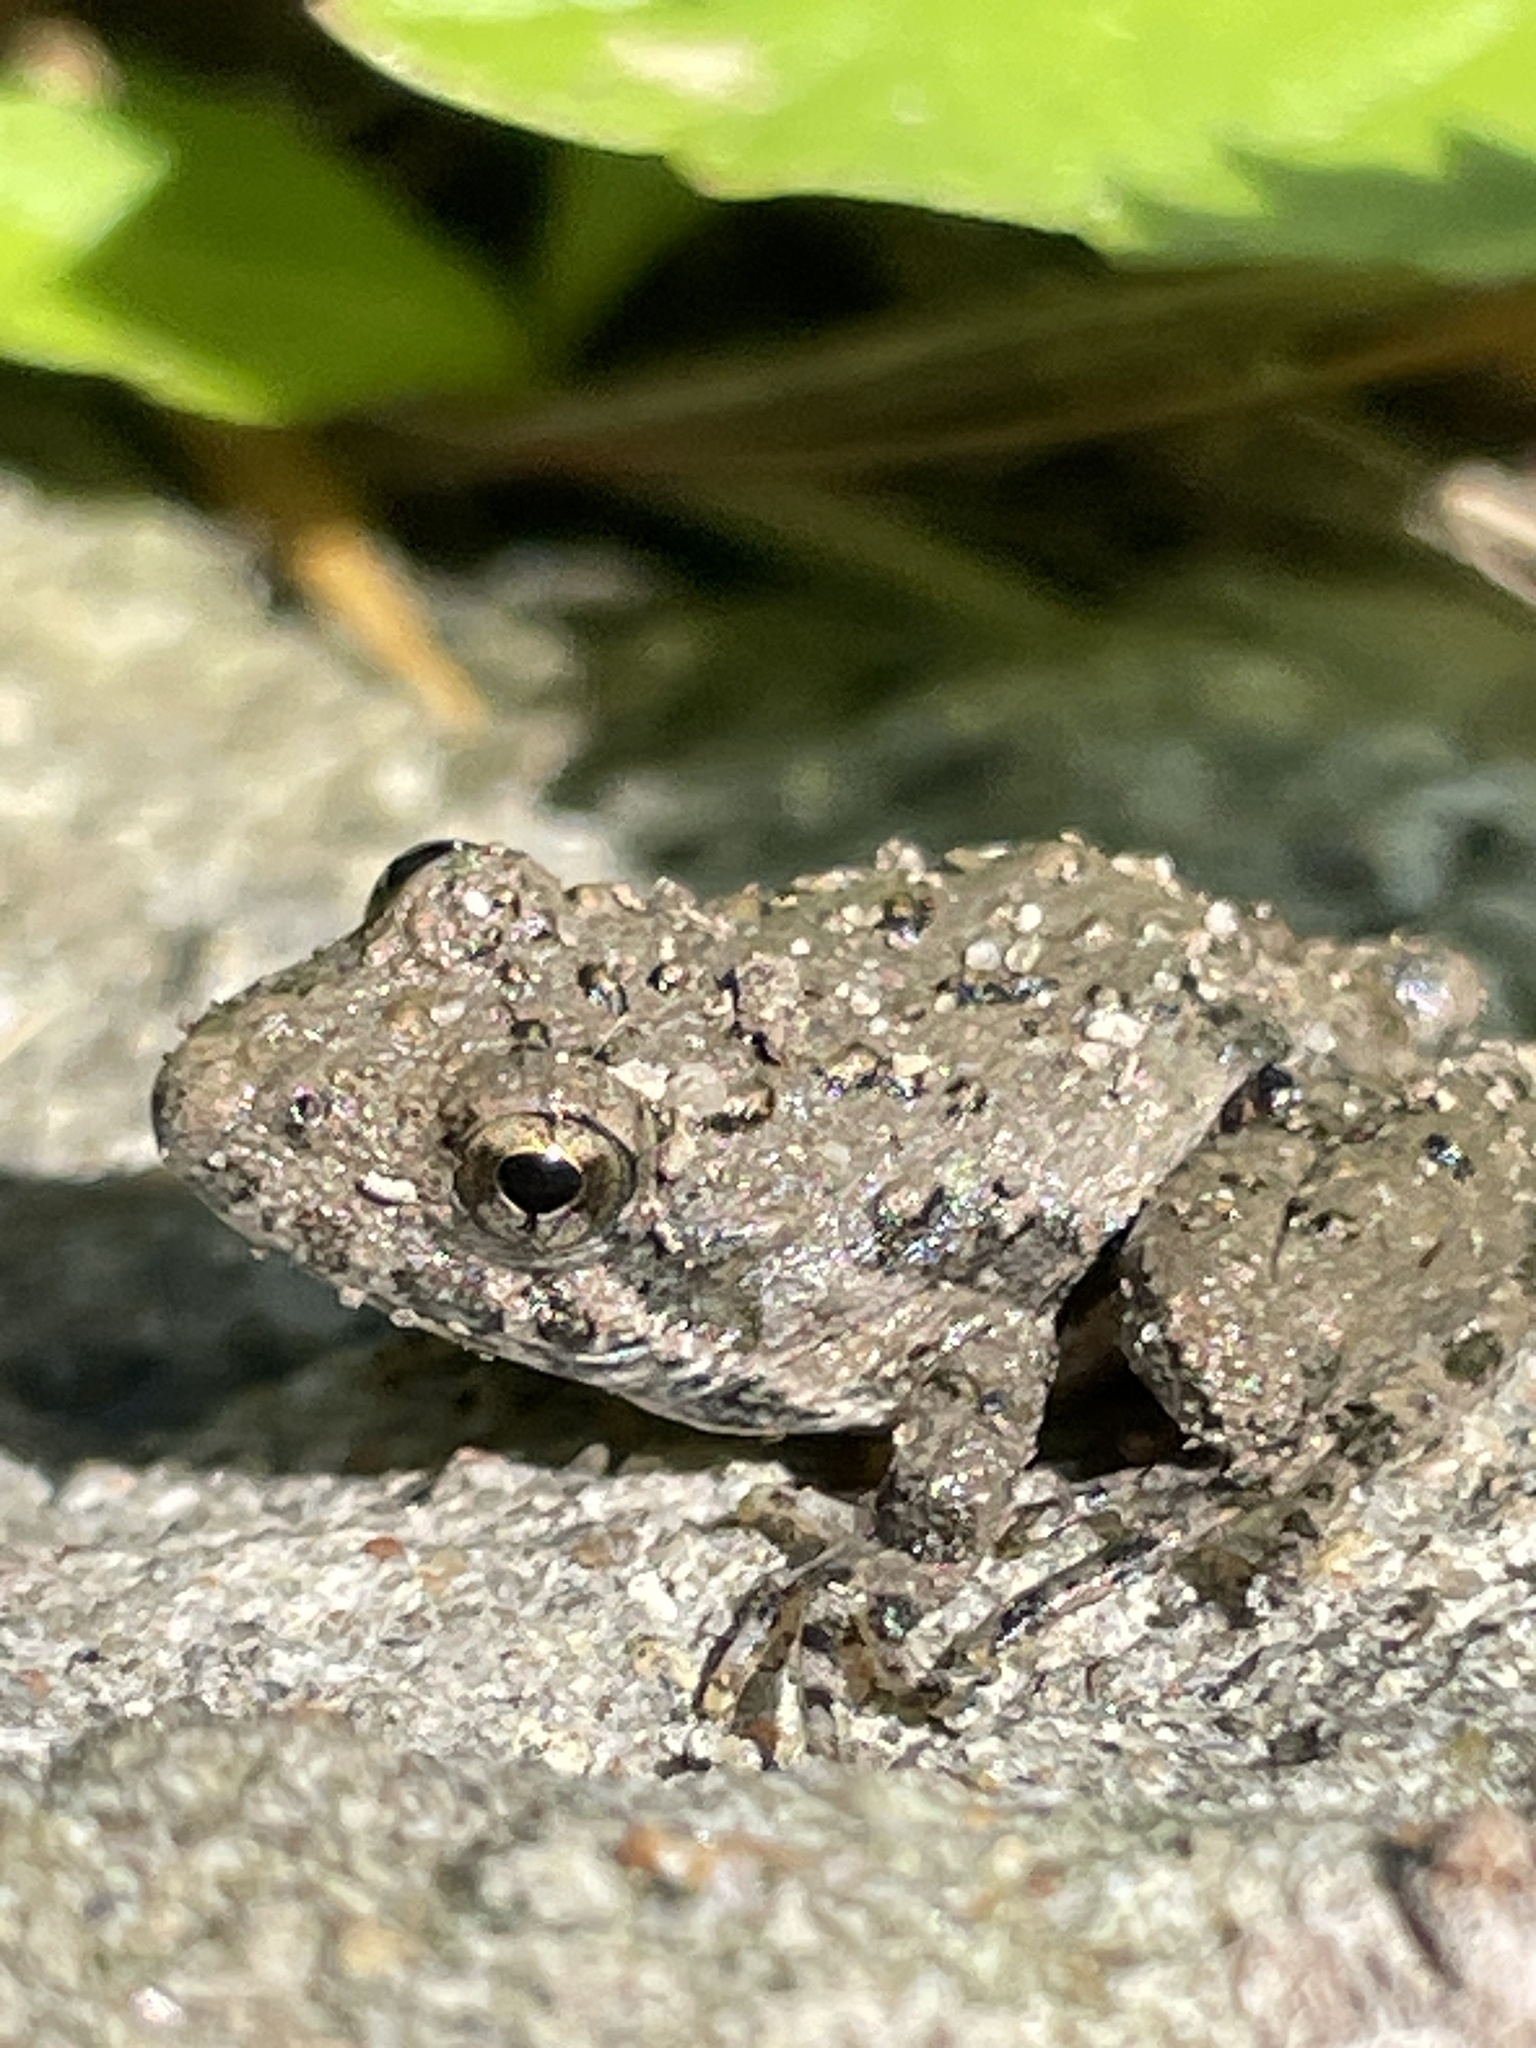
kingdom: Animalia
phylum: Chordata
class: Amphibia
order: Anura
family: Hylidae
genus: Acris
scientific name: Acris blanchardi
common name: Blanchard's cricket frog
